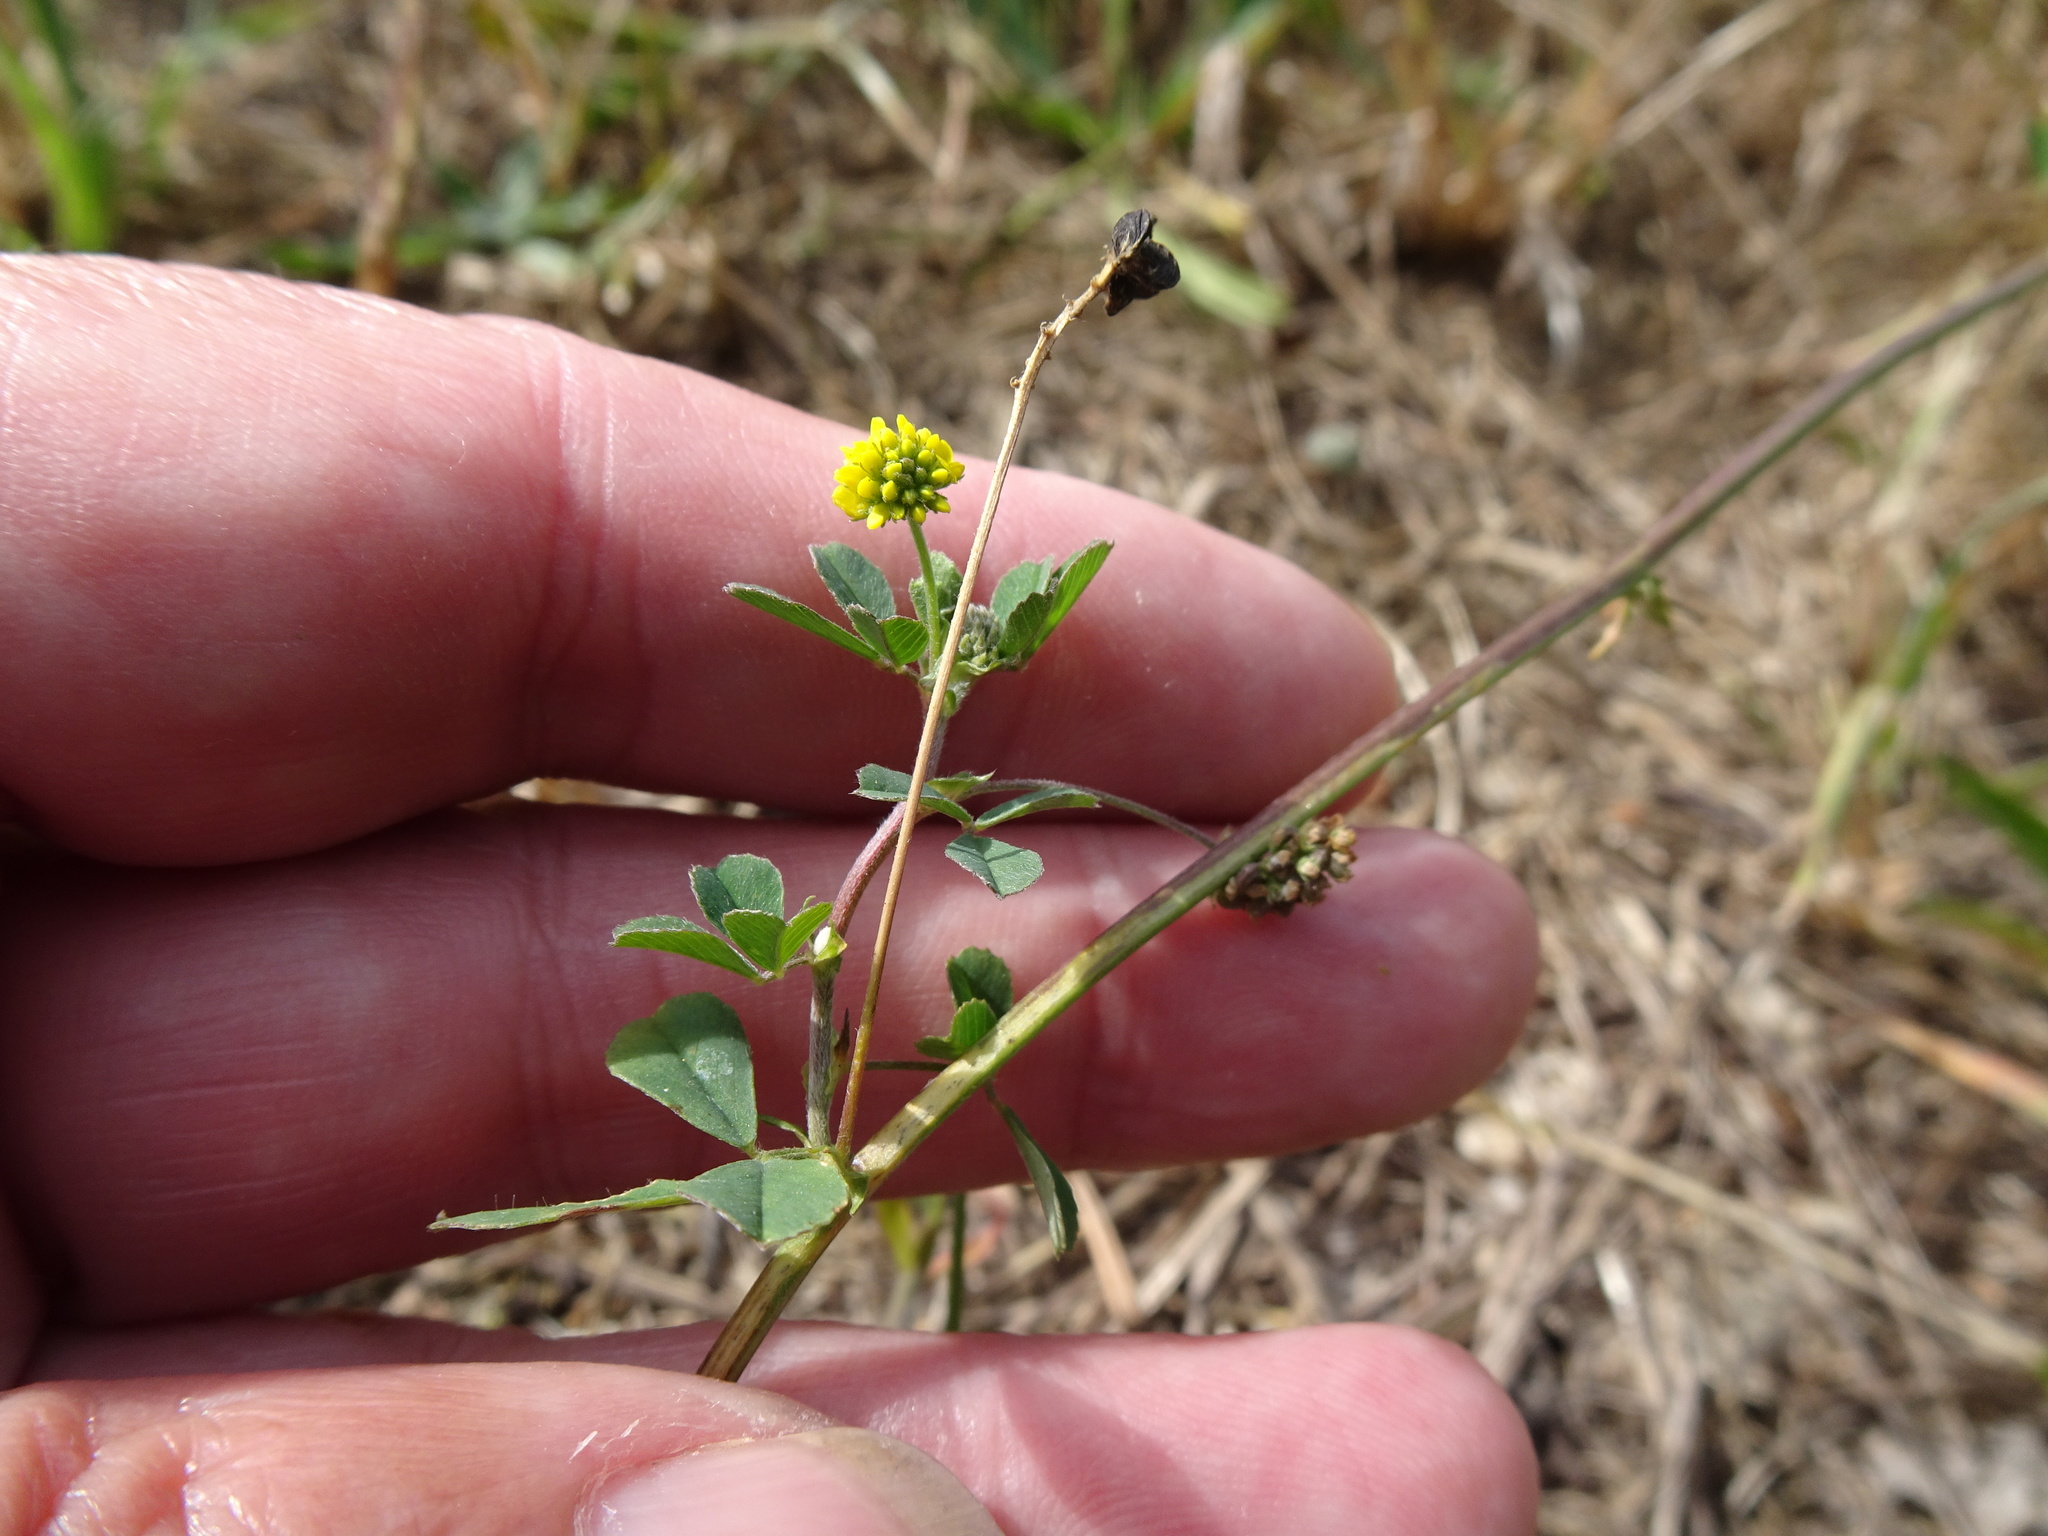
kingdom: Plantae
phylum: Tracheophyta
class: Magnoliopsida
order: Fabales
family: Fabaceae
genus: Medicago
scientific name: Medicago lupulina
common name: Black medick
